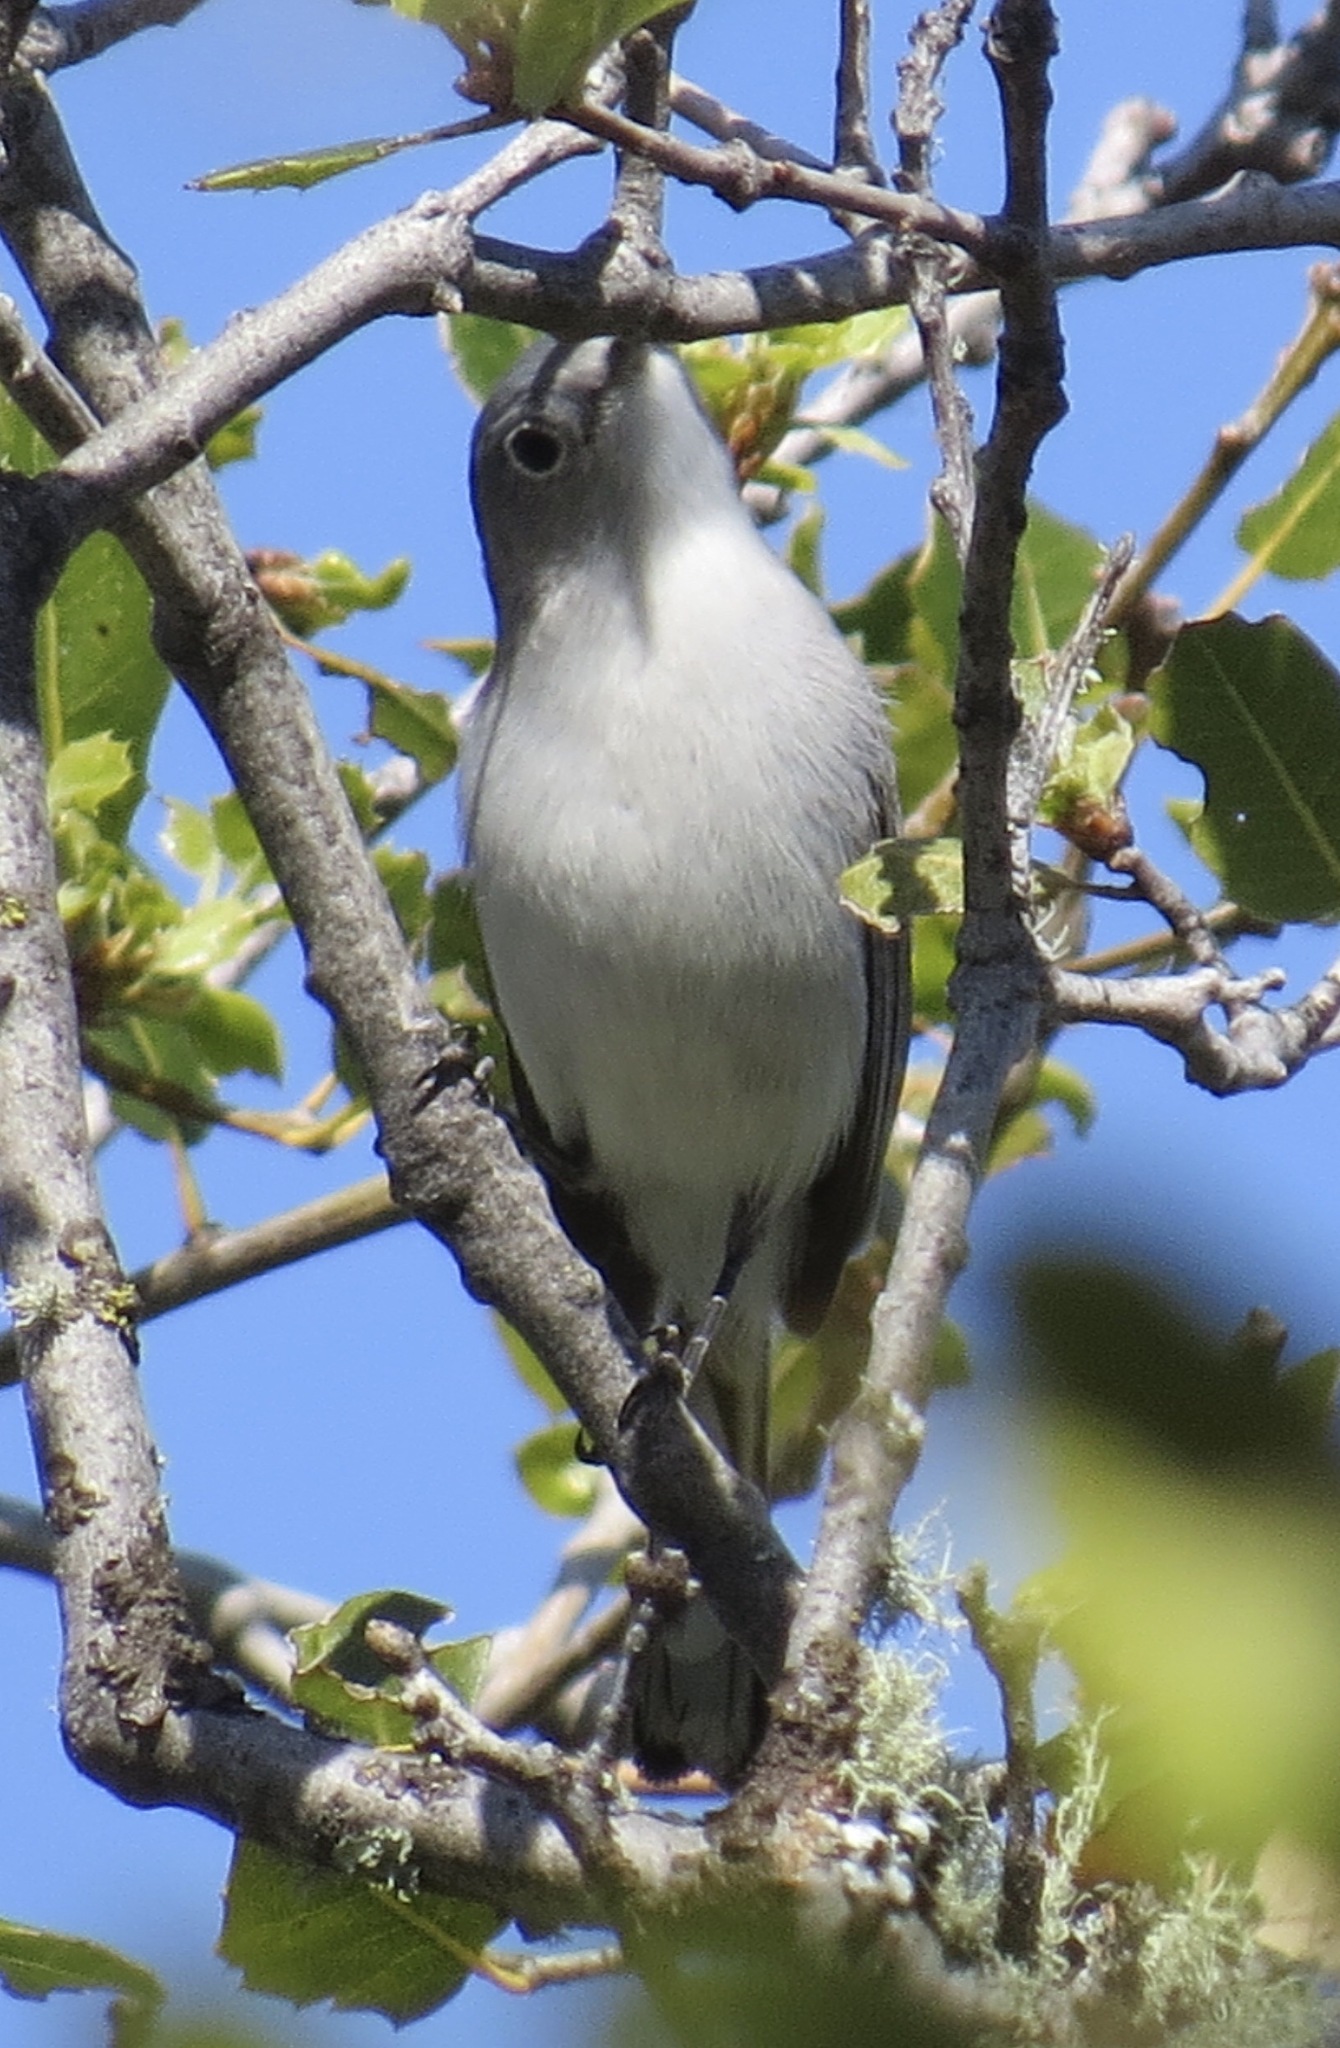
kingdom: Animalia
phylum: Chordata
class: Aves
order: Passeriformes
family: Polioptilidae
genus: Polioptila
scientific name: Polioptila caerulea
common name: Blue-gray gnatcatcher
